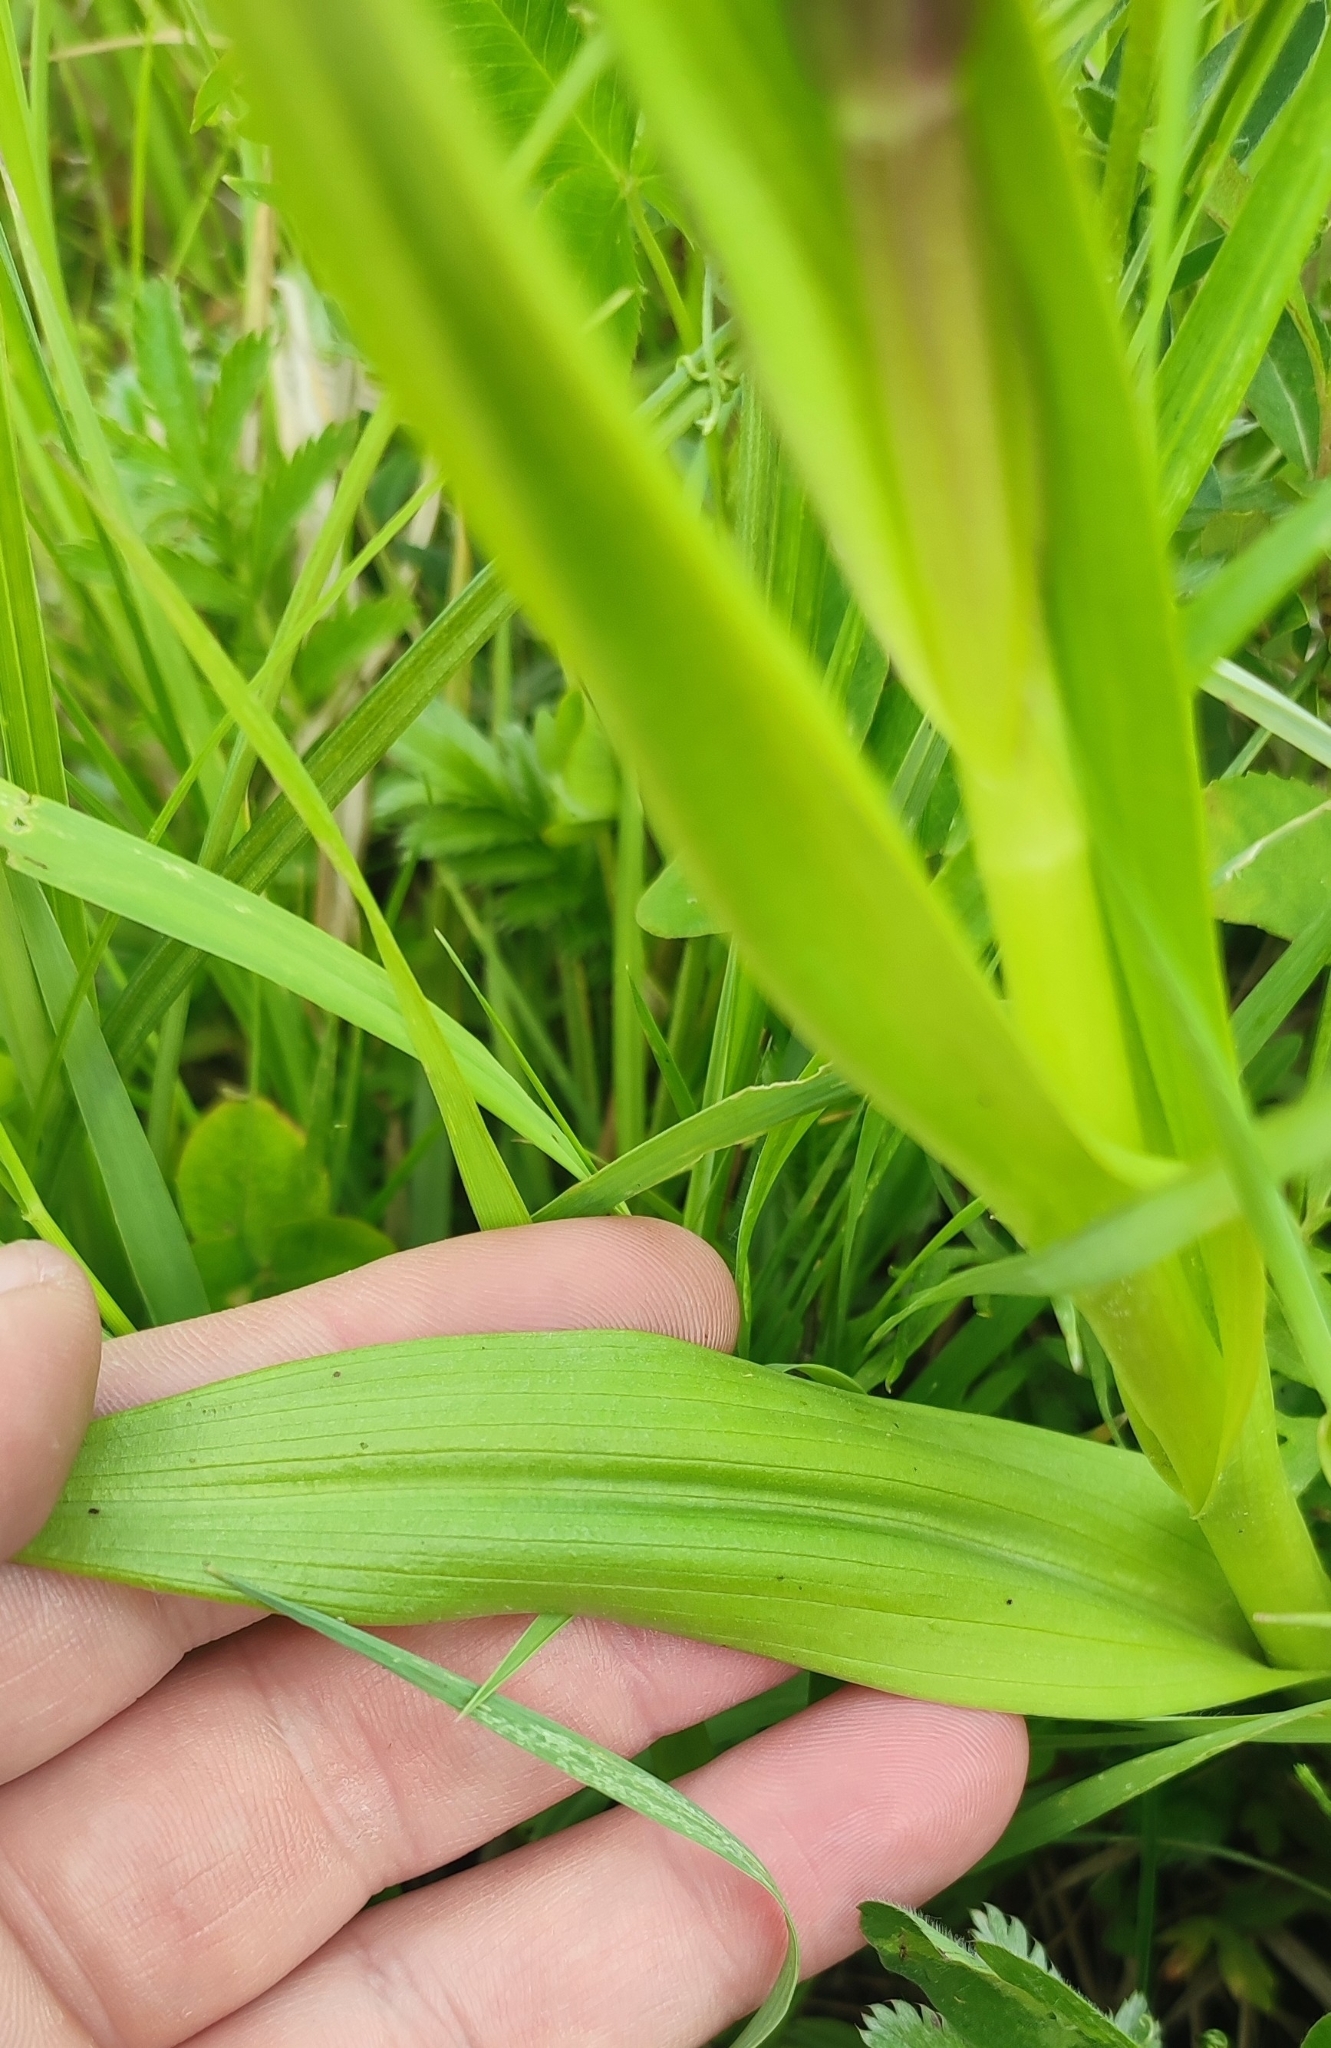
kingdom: Plantae
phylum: Tracheophyta
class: Liliopsida
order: Asparagales
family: Orchidaceae
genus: Dactylorhiza
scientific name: Dactylorhiza incarnata
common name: Early marsh-orchid
